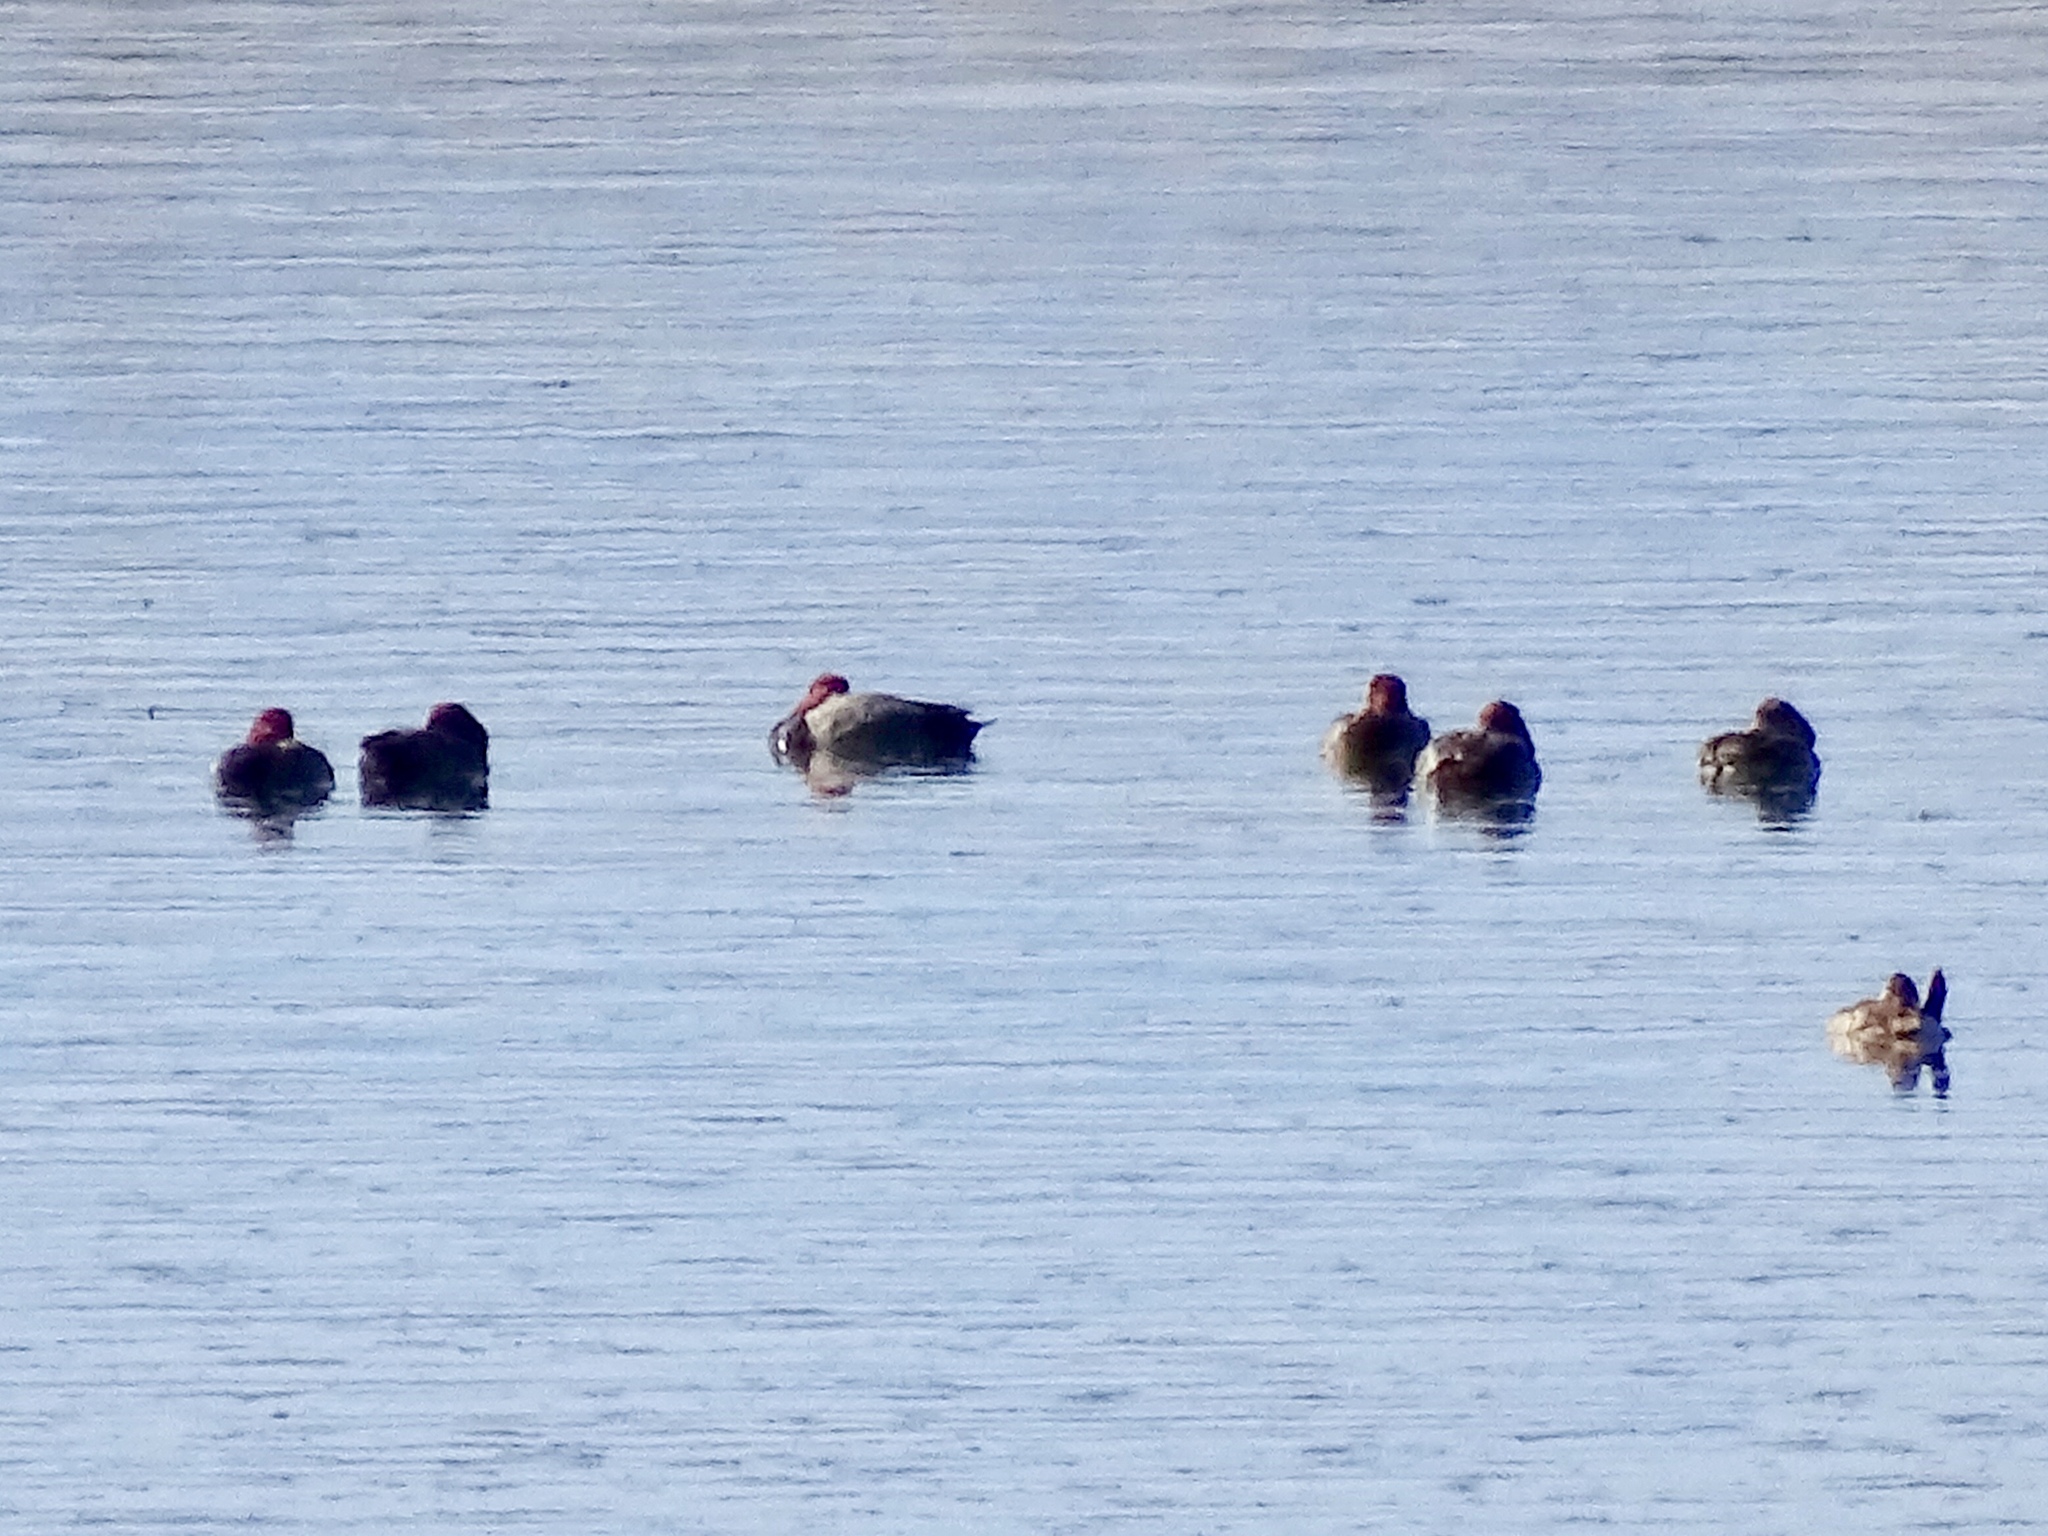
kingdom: Animalia
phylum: Chordata
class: Aves
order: Anseriformes
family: Anatidae
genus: Aythya
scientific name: Aythya americana
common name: Redhead
